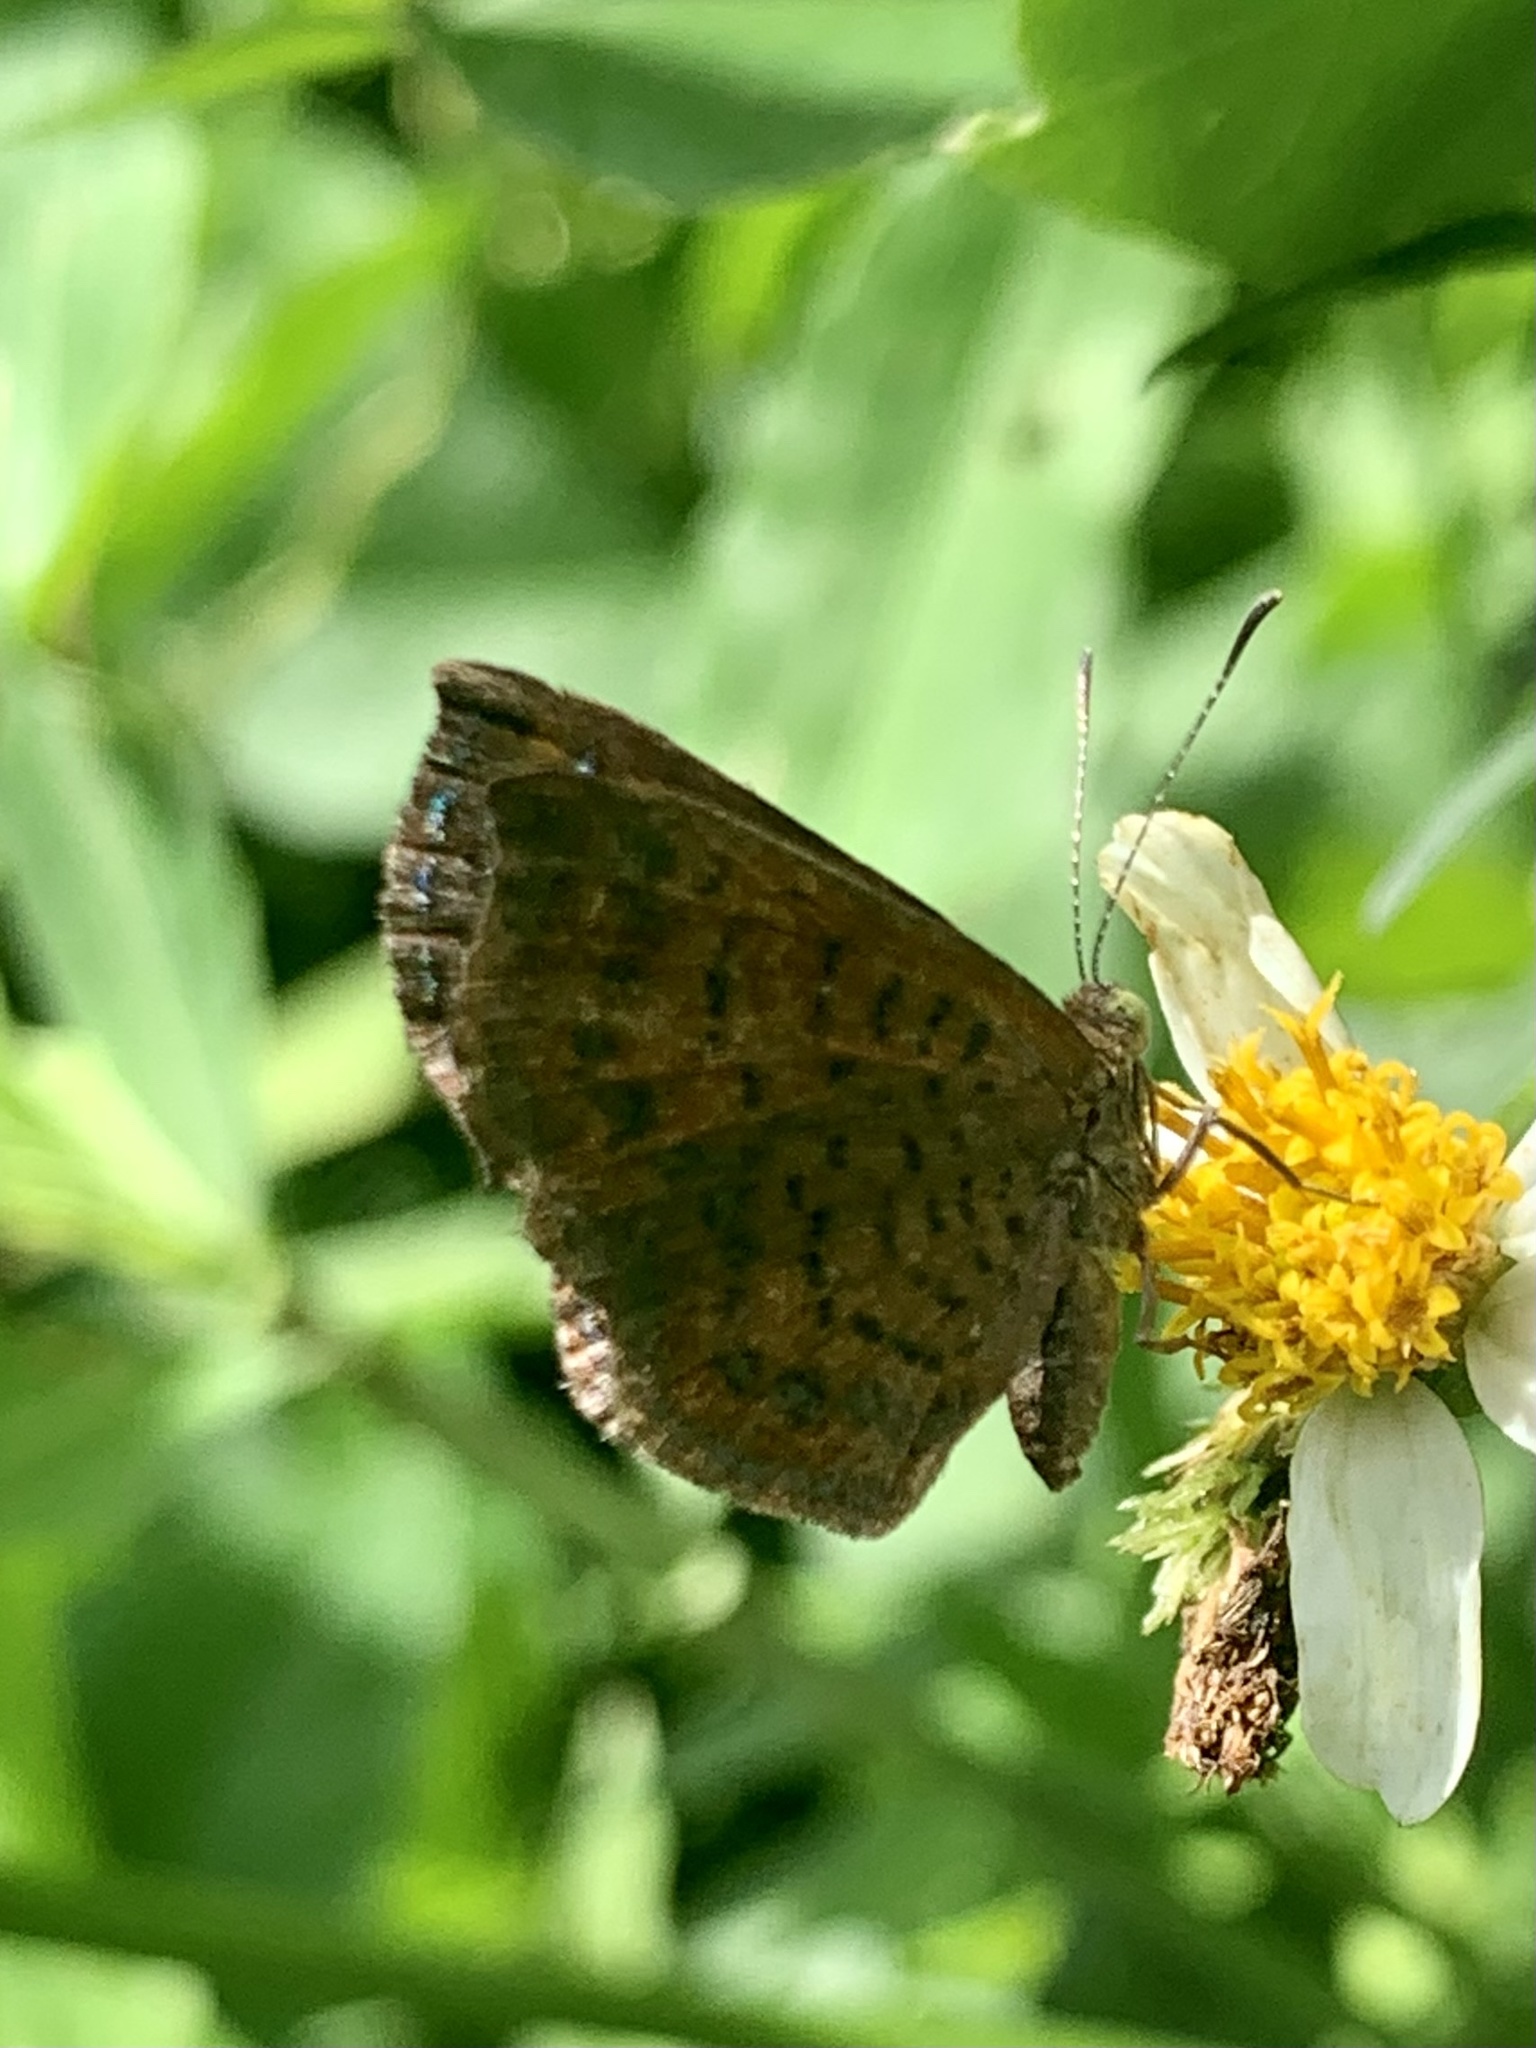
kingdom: Animalia
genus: Calephelis
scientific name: Calephelis
